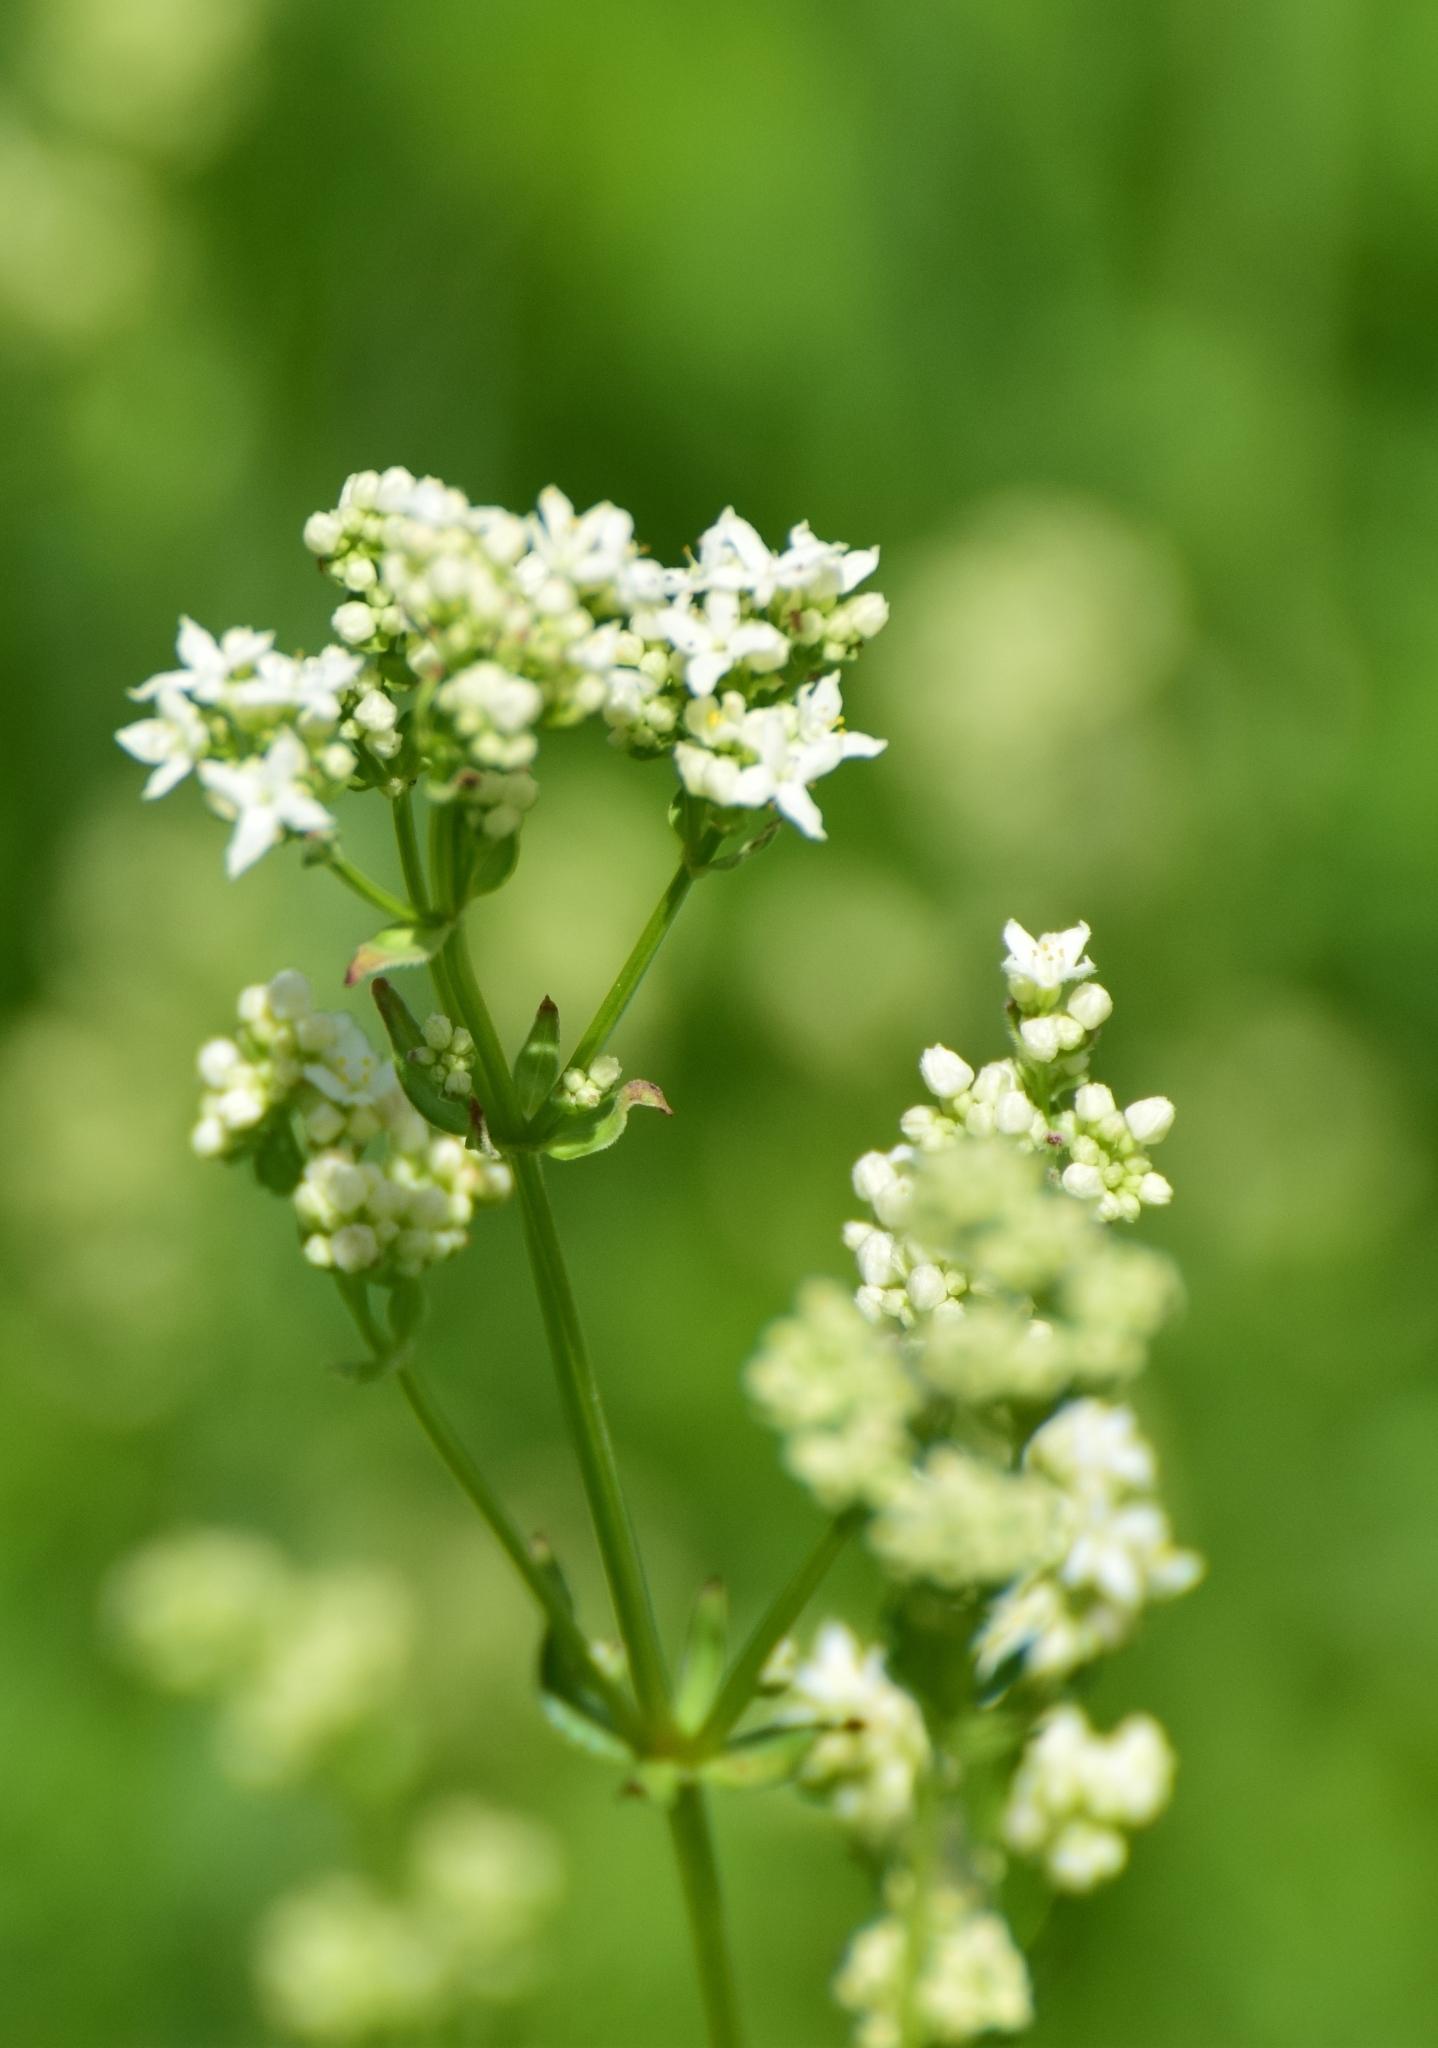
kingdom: Plantae
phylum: Tracheophyta
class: Magnoliopsida
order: Gentianales
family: Rubiaceae
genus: Galium
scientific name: Galium boreale
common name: Northern bedstraw
